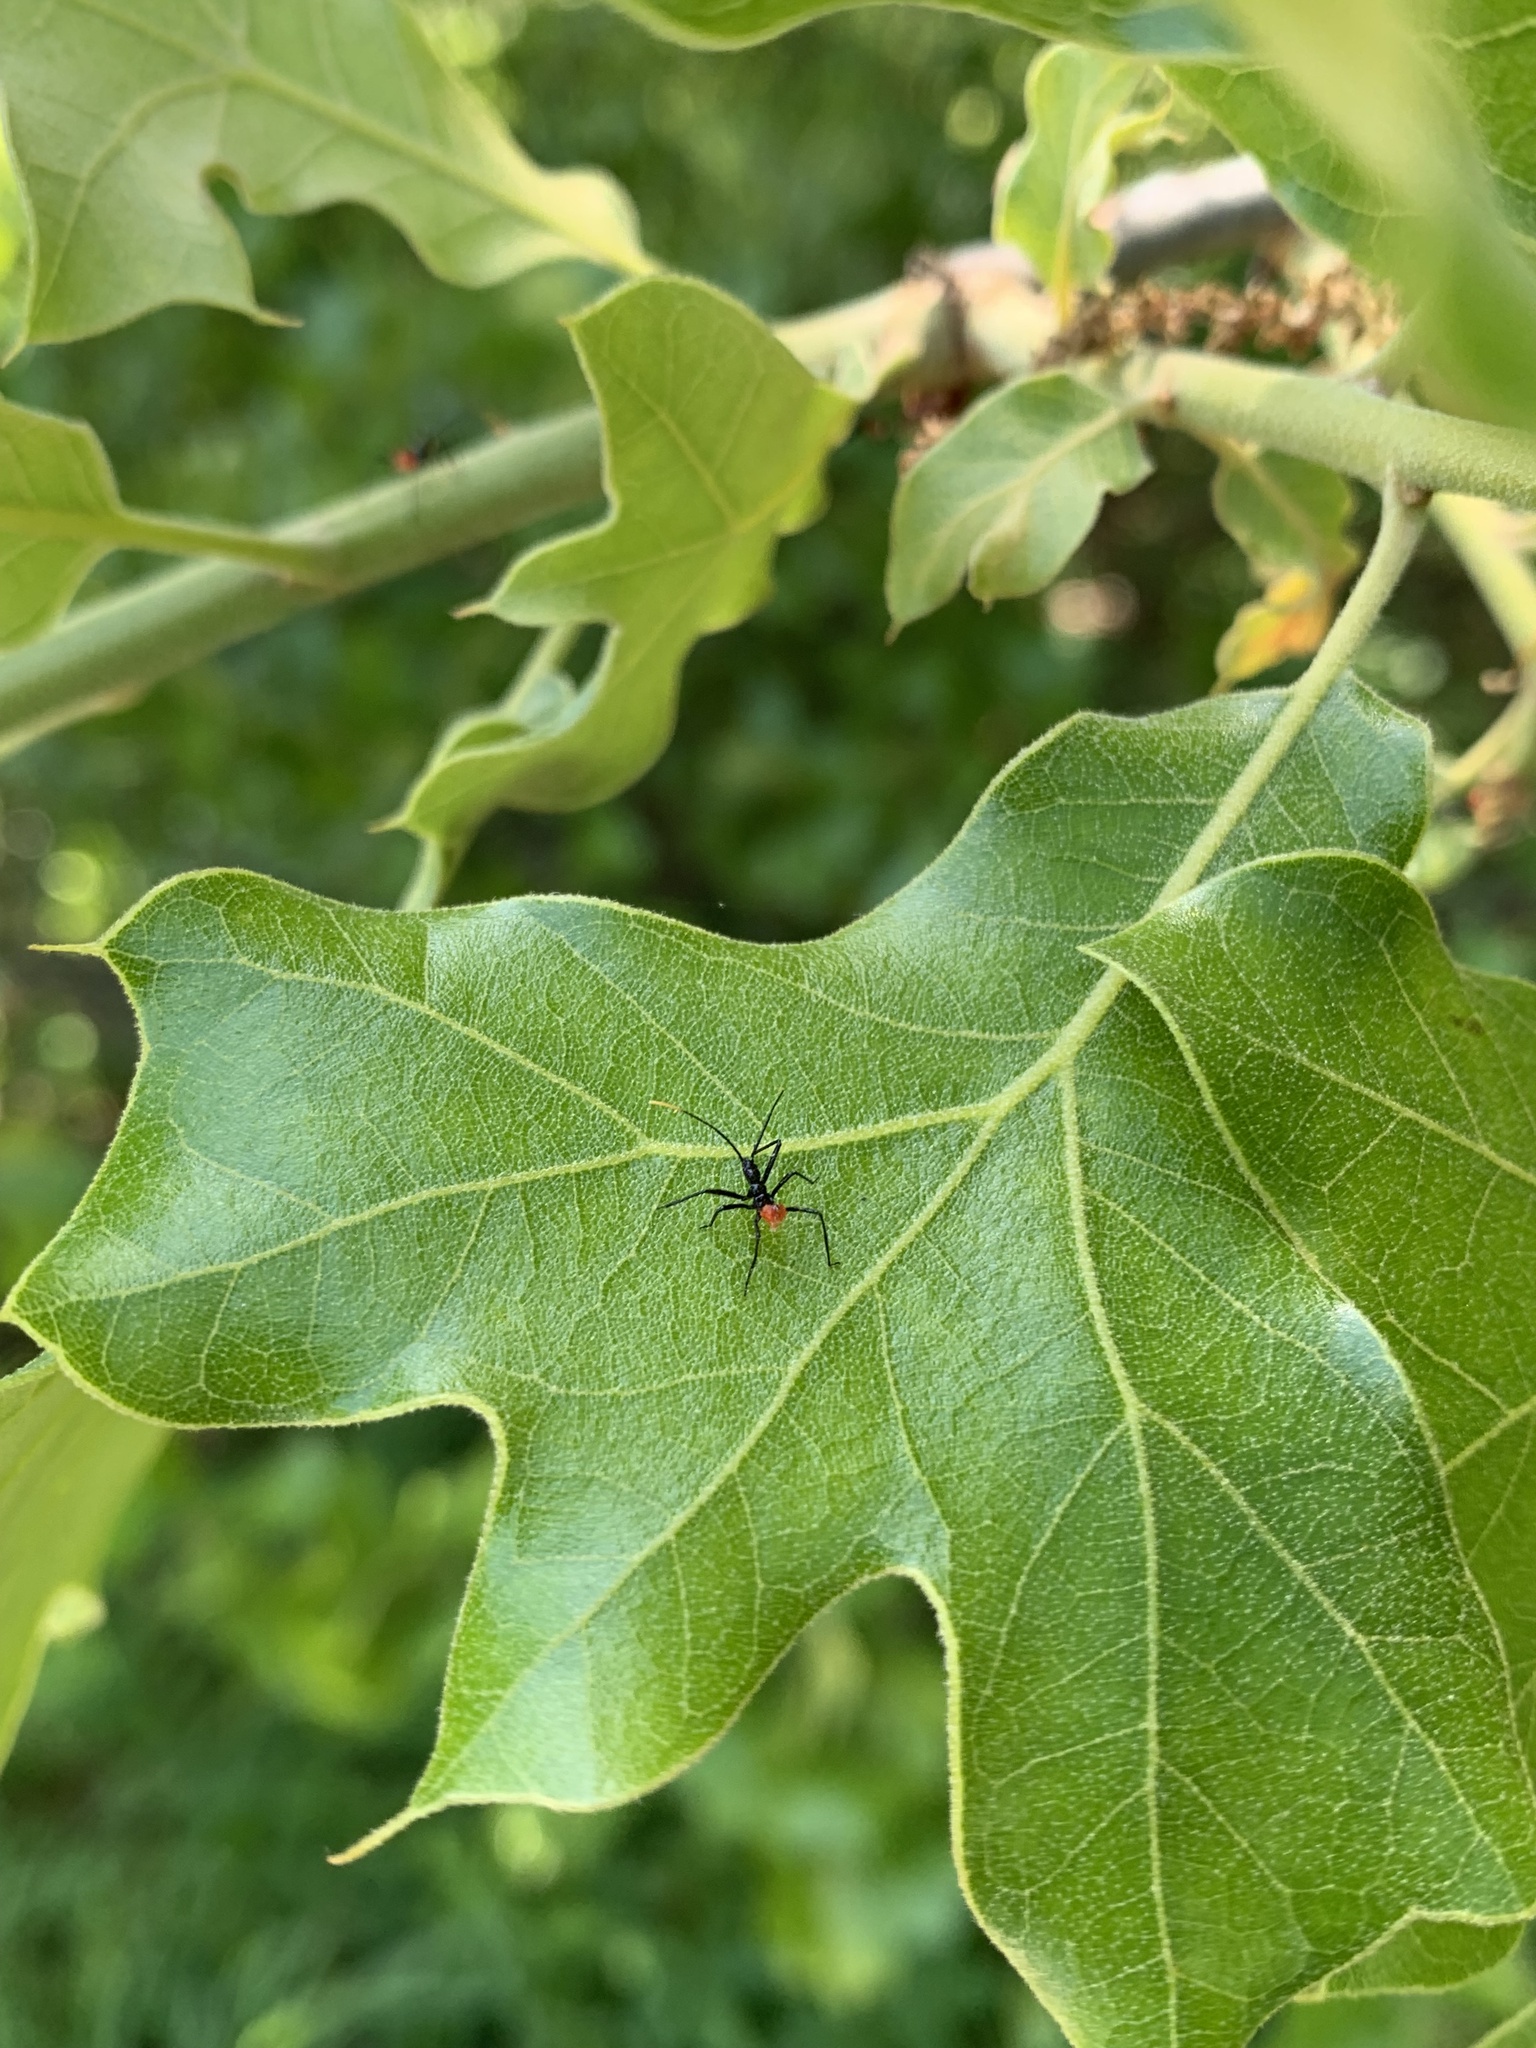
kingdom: Animalia
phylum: Arthropoda
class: Insecta
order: Hemiptera
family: Reduviidae
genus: Arilus
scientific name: Arilus cristatus
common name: North american wheel bug
